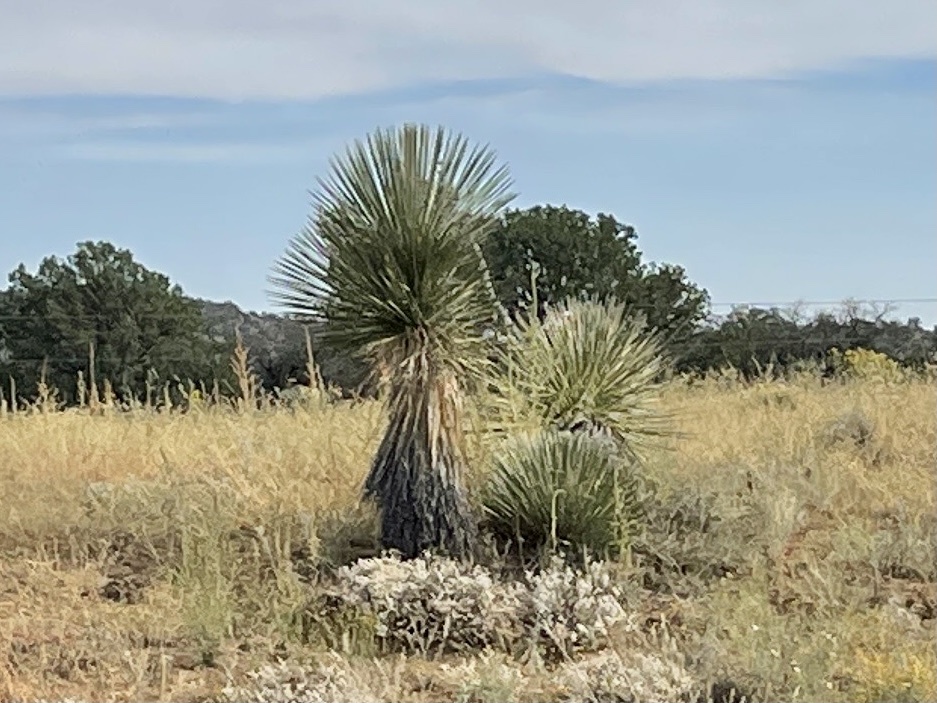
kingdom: Plantae
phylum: Tracheophyta
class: Liliopsida
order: Asparagales
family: Asparagaceae
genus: Yucca
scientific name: Yucca elata
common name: Palmella
